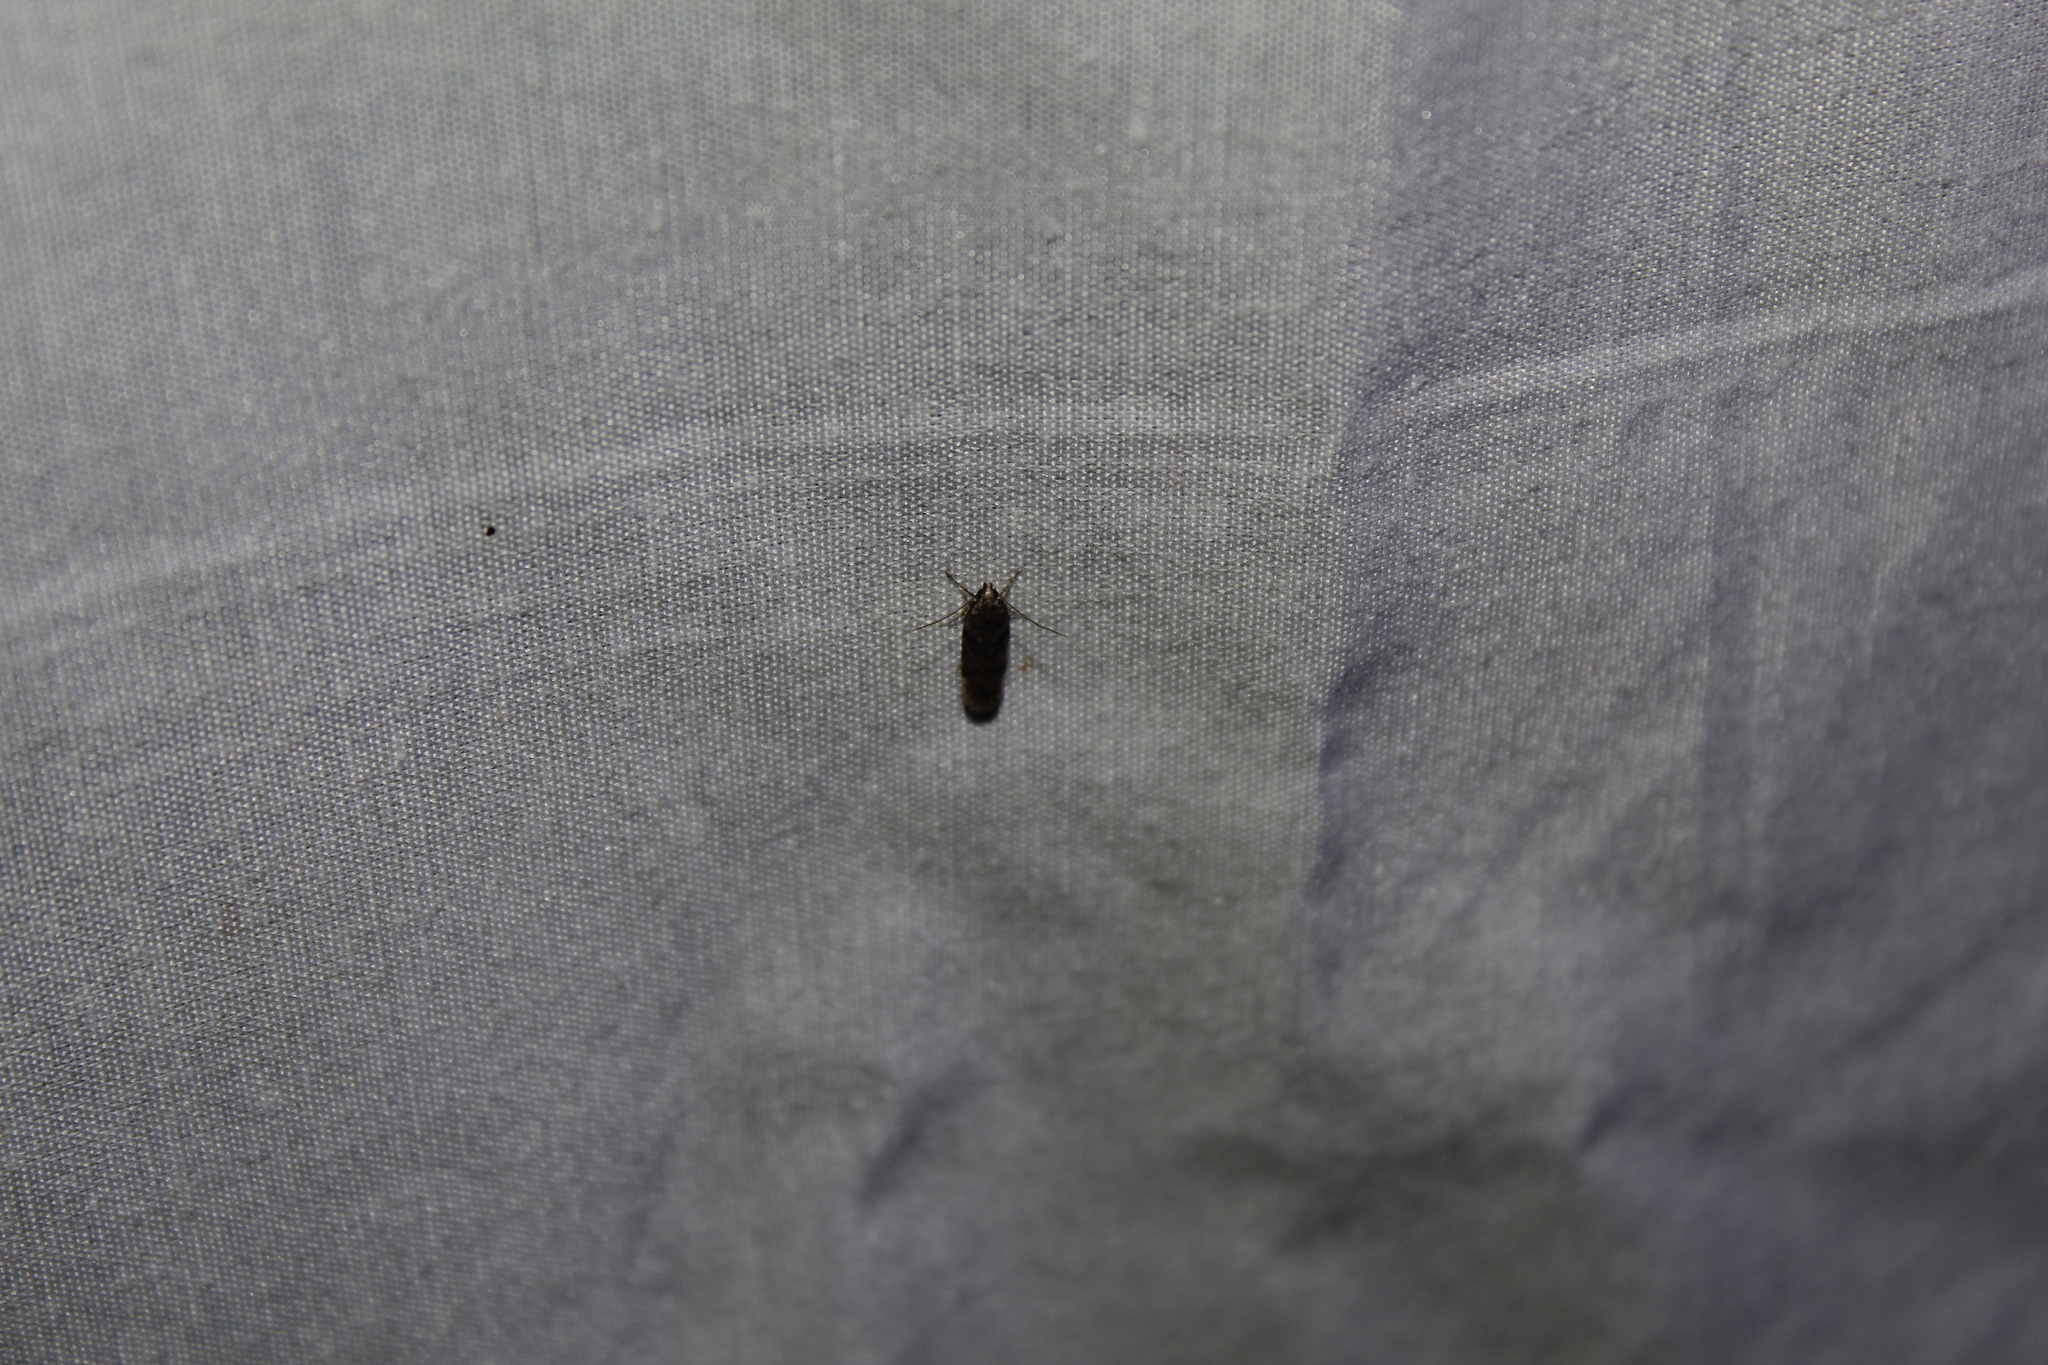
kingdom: Animalia
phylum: Arthropoda
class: Insecta
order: Lepidoptera
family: Gelechiidae
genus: Chionodes
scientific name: Chionodes thoraceochrella
